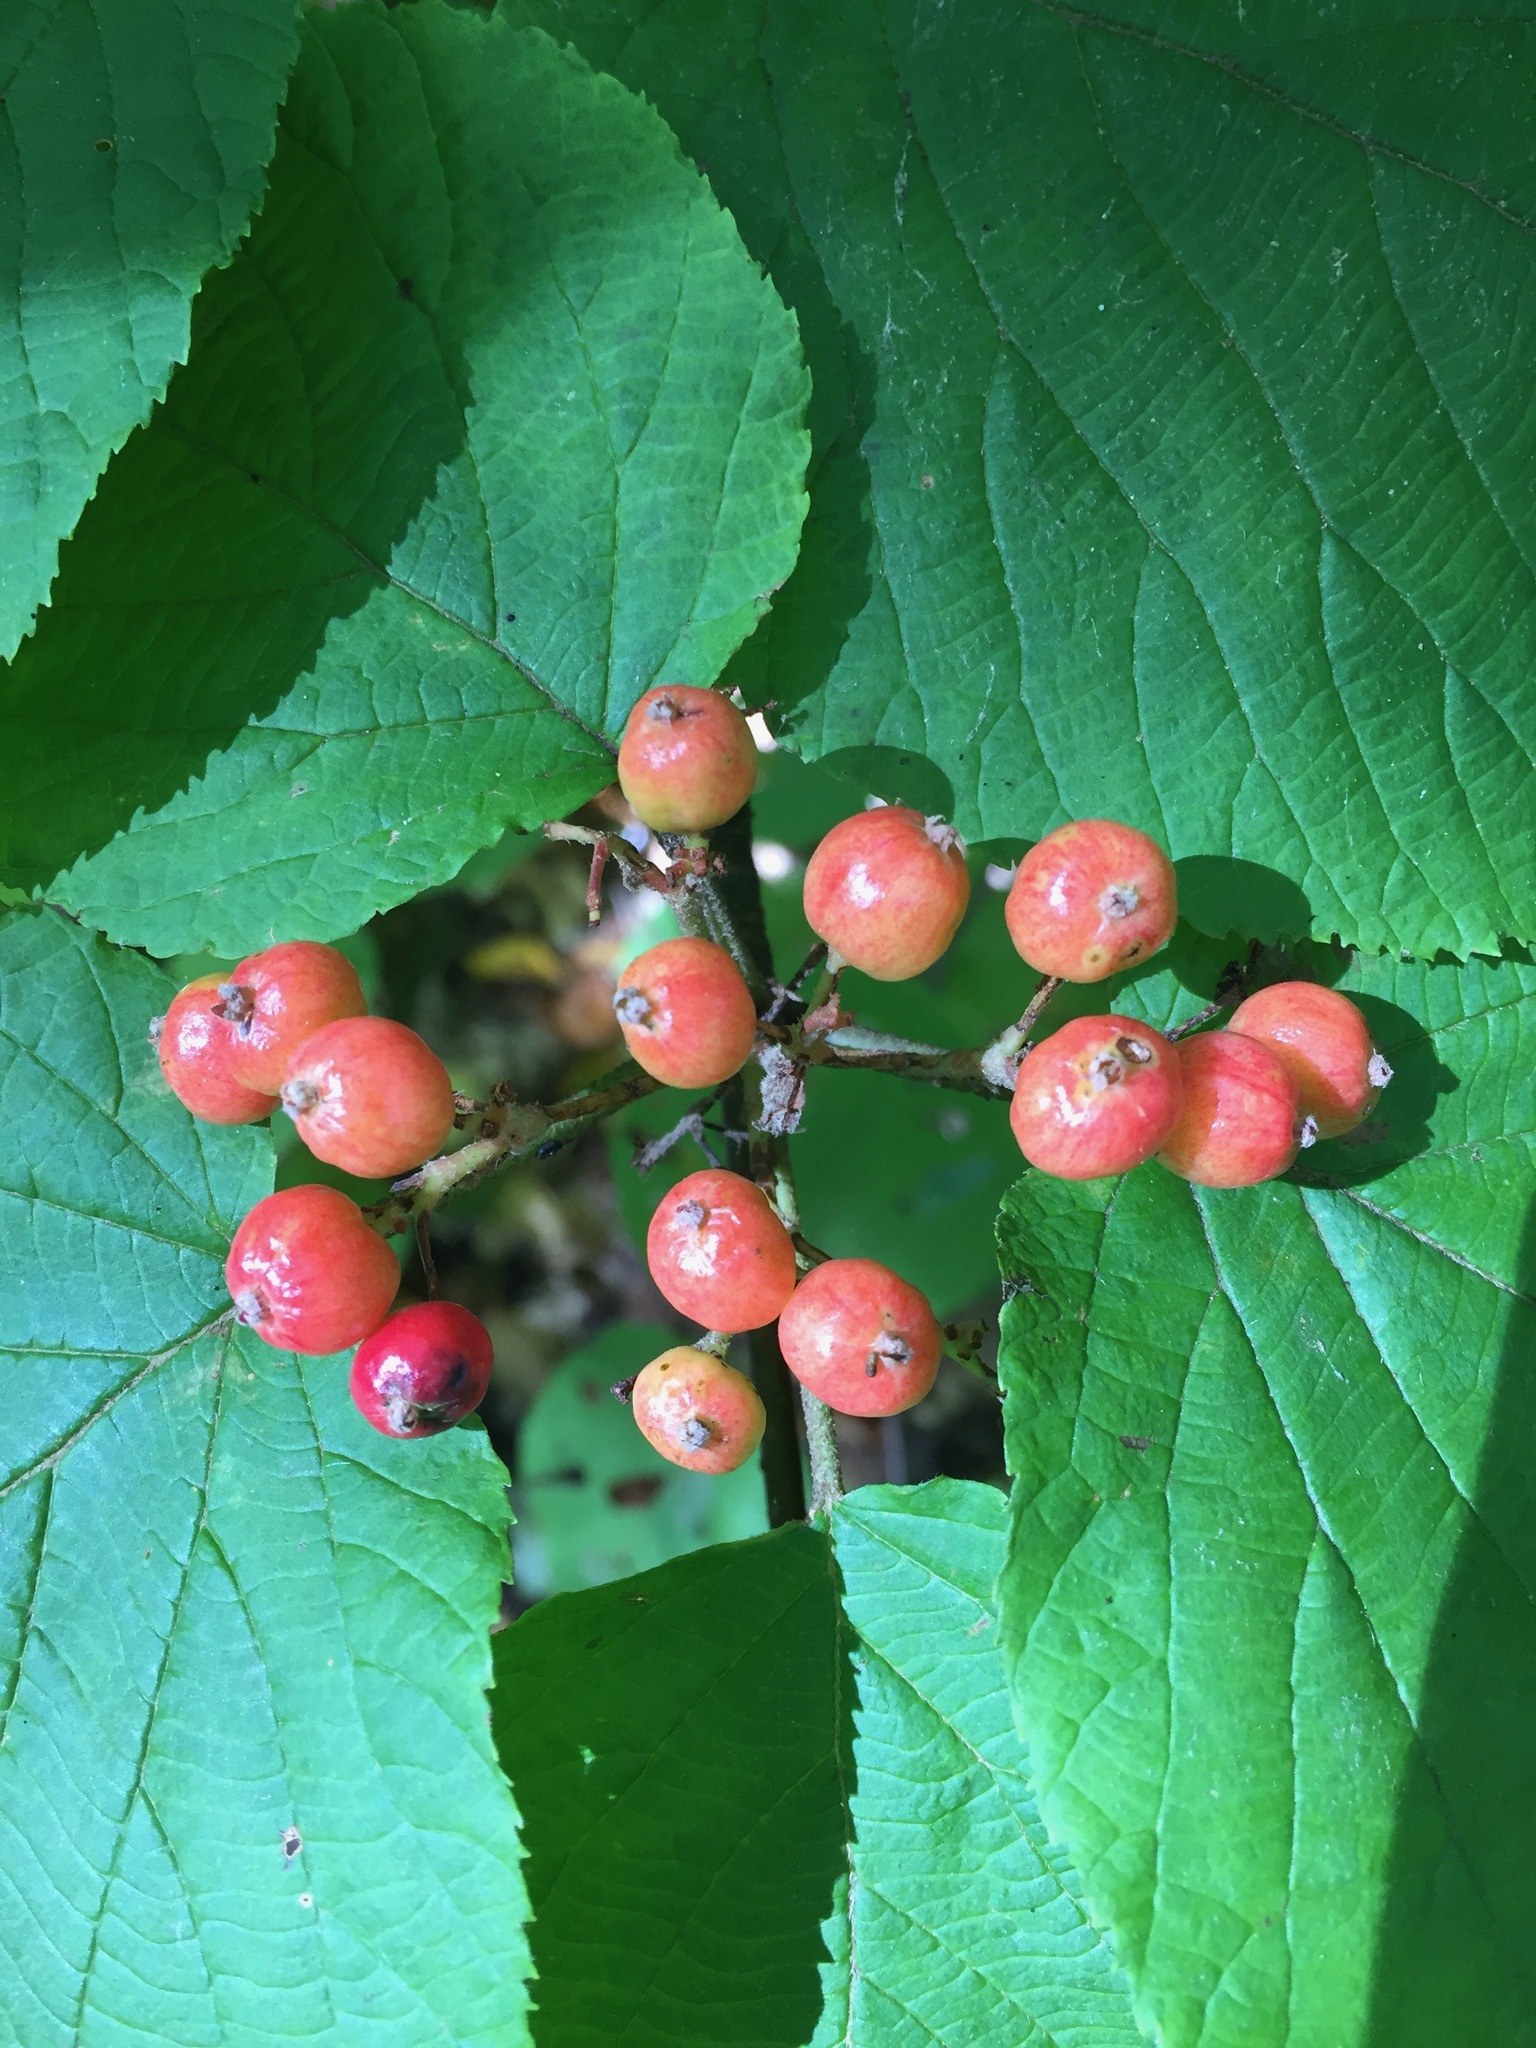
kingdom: Plantae
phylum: Tracheophyta
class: Magnoliopsida
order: Dipsacales
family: Viburnaceae
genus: Viburnum
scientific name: Viburnum lantanoides
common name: Hobblebush
